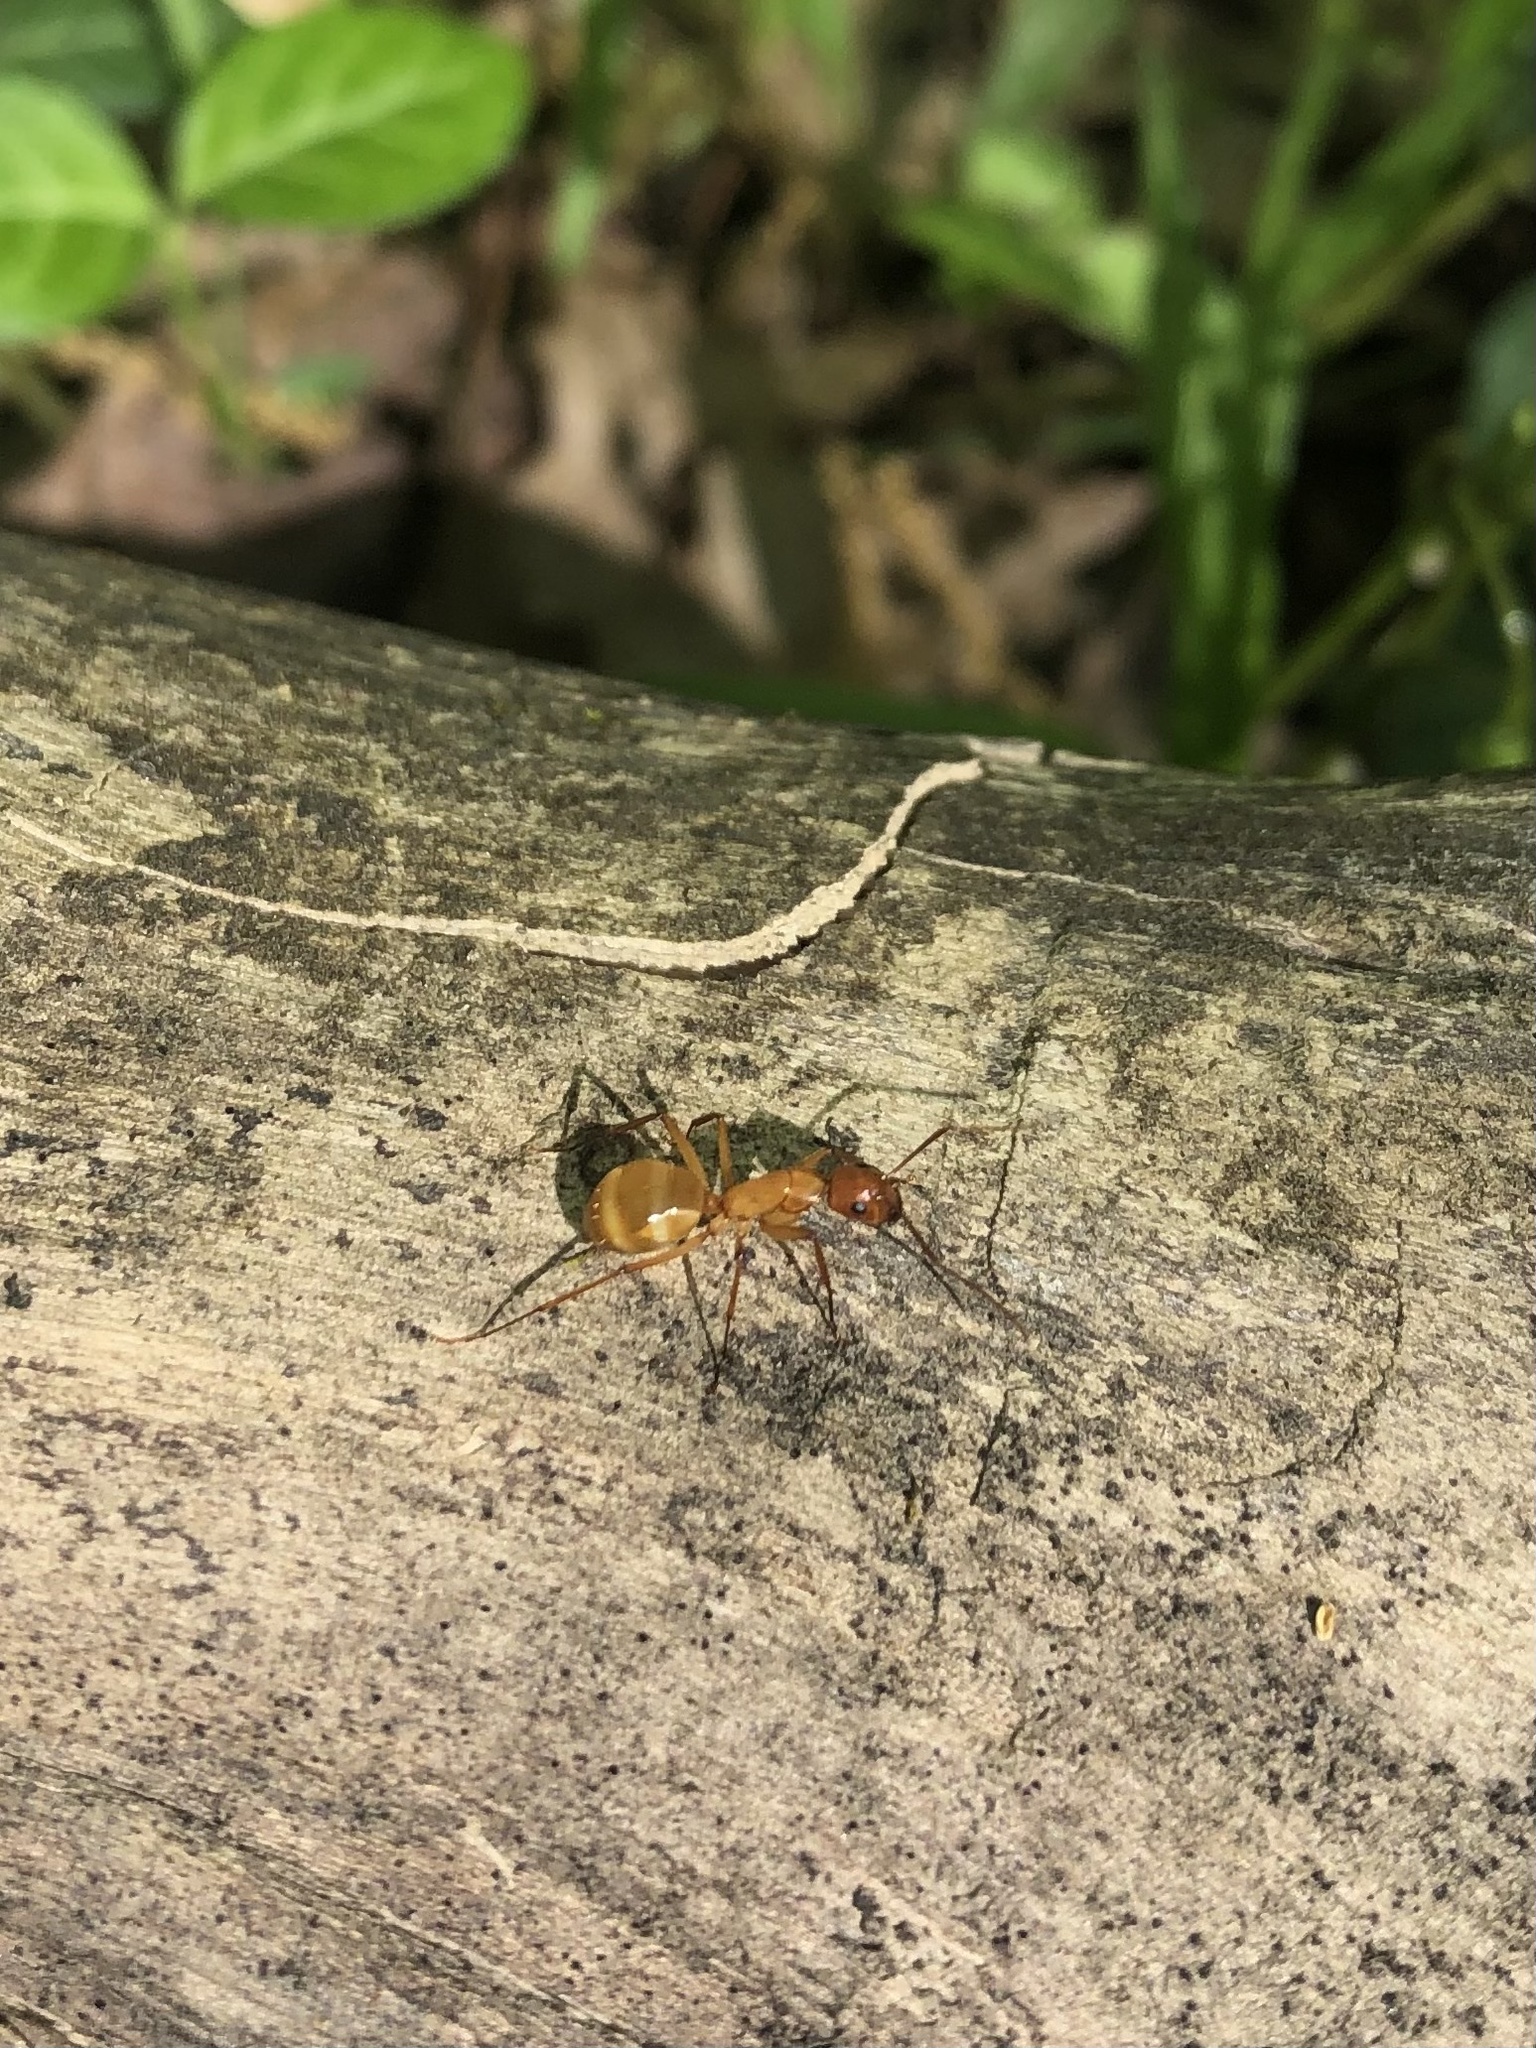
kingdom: Animalia
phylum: Arthropoda
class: Insecta
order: Hymenoptera
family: Formicidae
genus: Camponotus
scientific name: Camponotus castaneus
